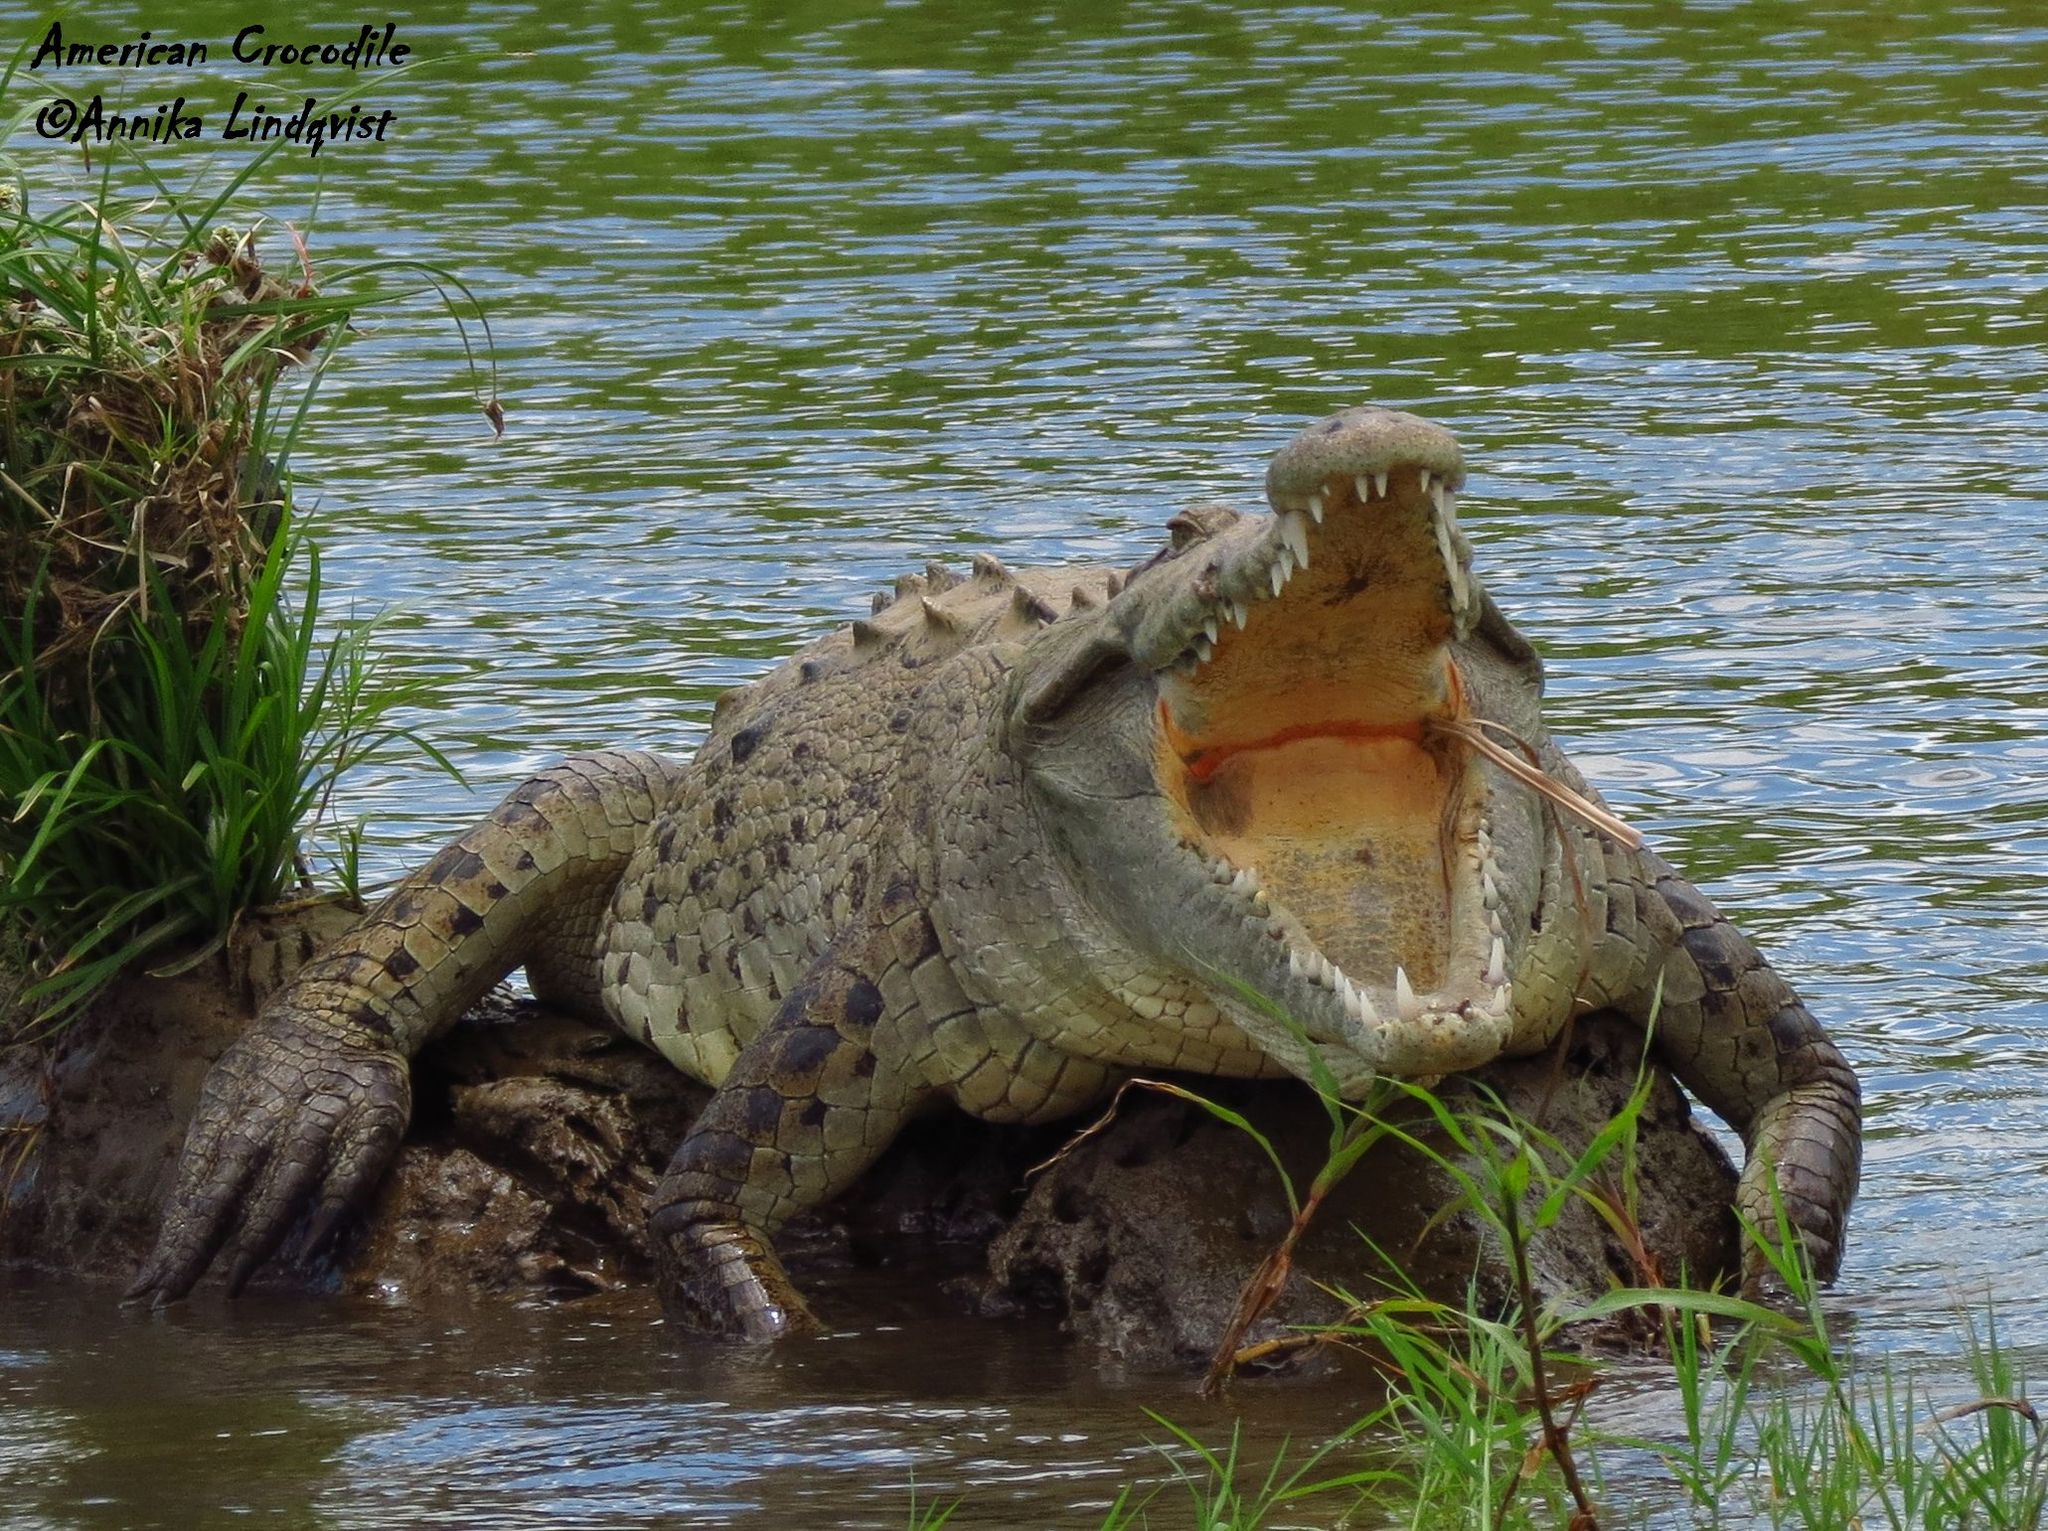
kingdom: Animalia
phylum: Chordata
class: Crocodylia
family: Crocodylidae
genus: Crocodylus
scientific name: Crocodylus acutus
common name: American crocodile
